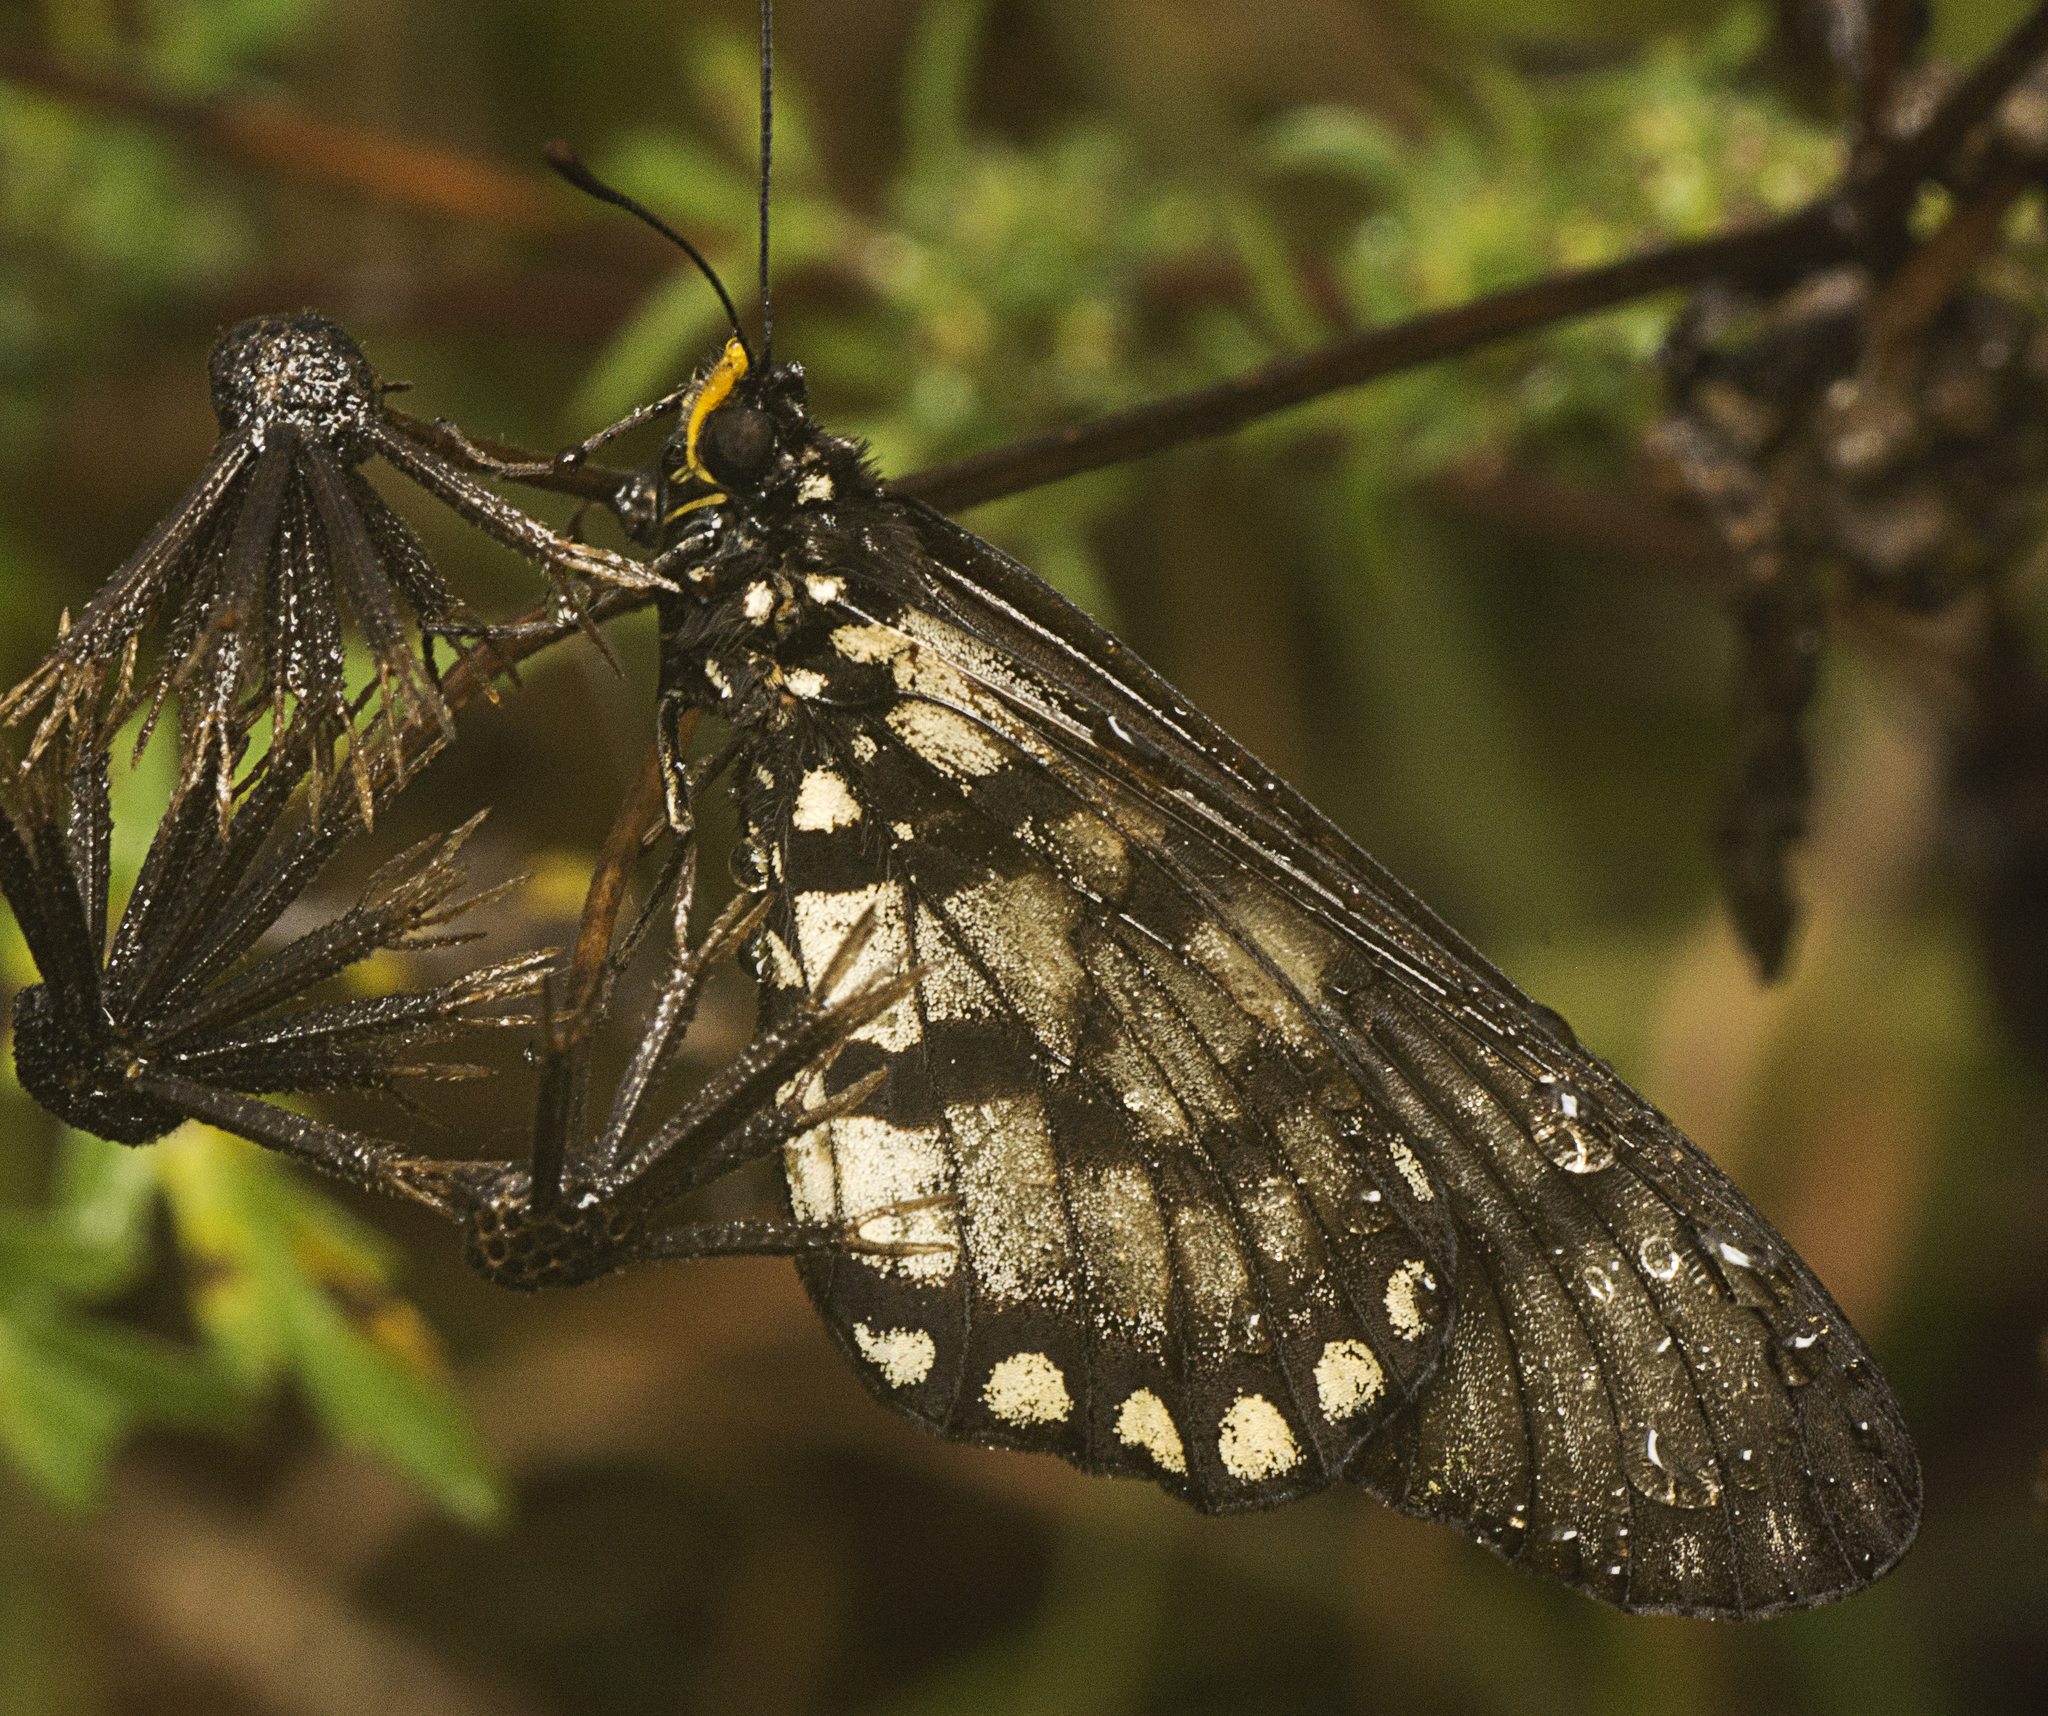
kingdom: Animalia
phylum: Arthropoda
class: Insecta
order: Lepidoptera
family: Nymphalidae
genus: Acraea
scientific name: Acraea andromacha
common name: Glasswing
